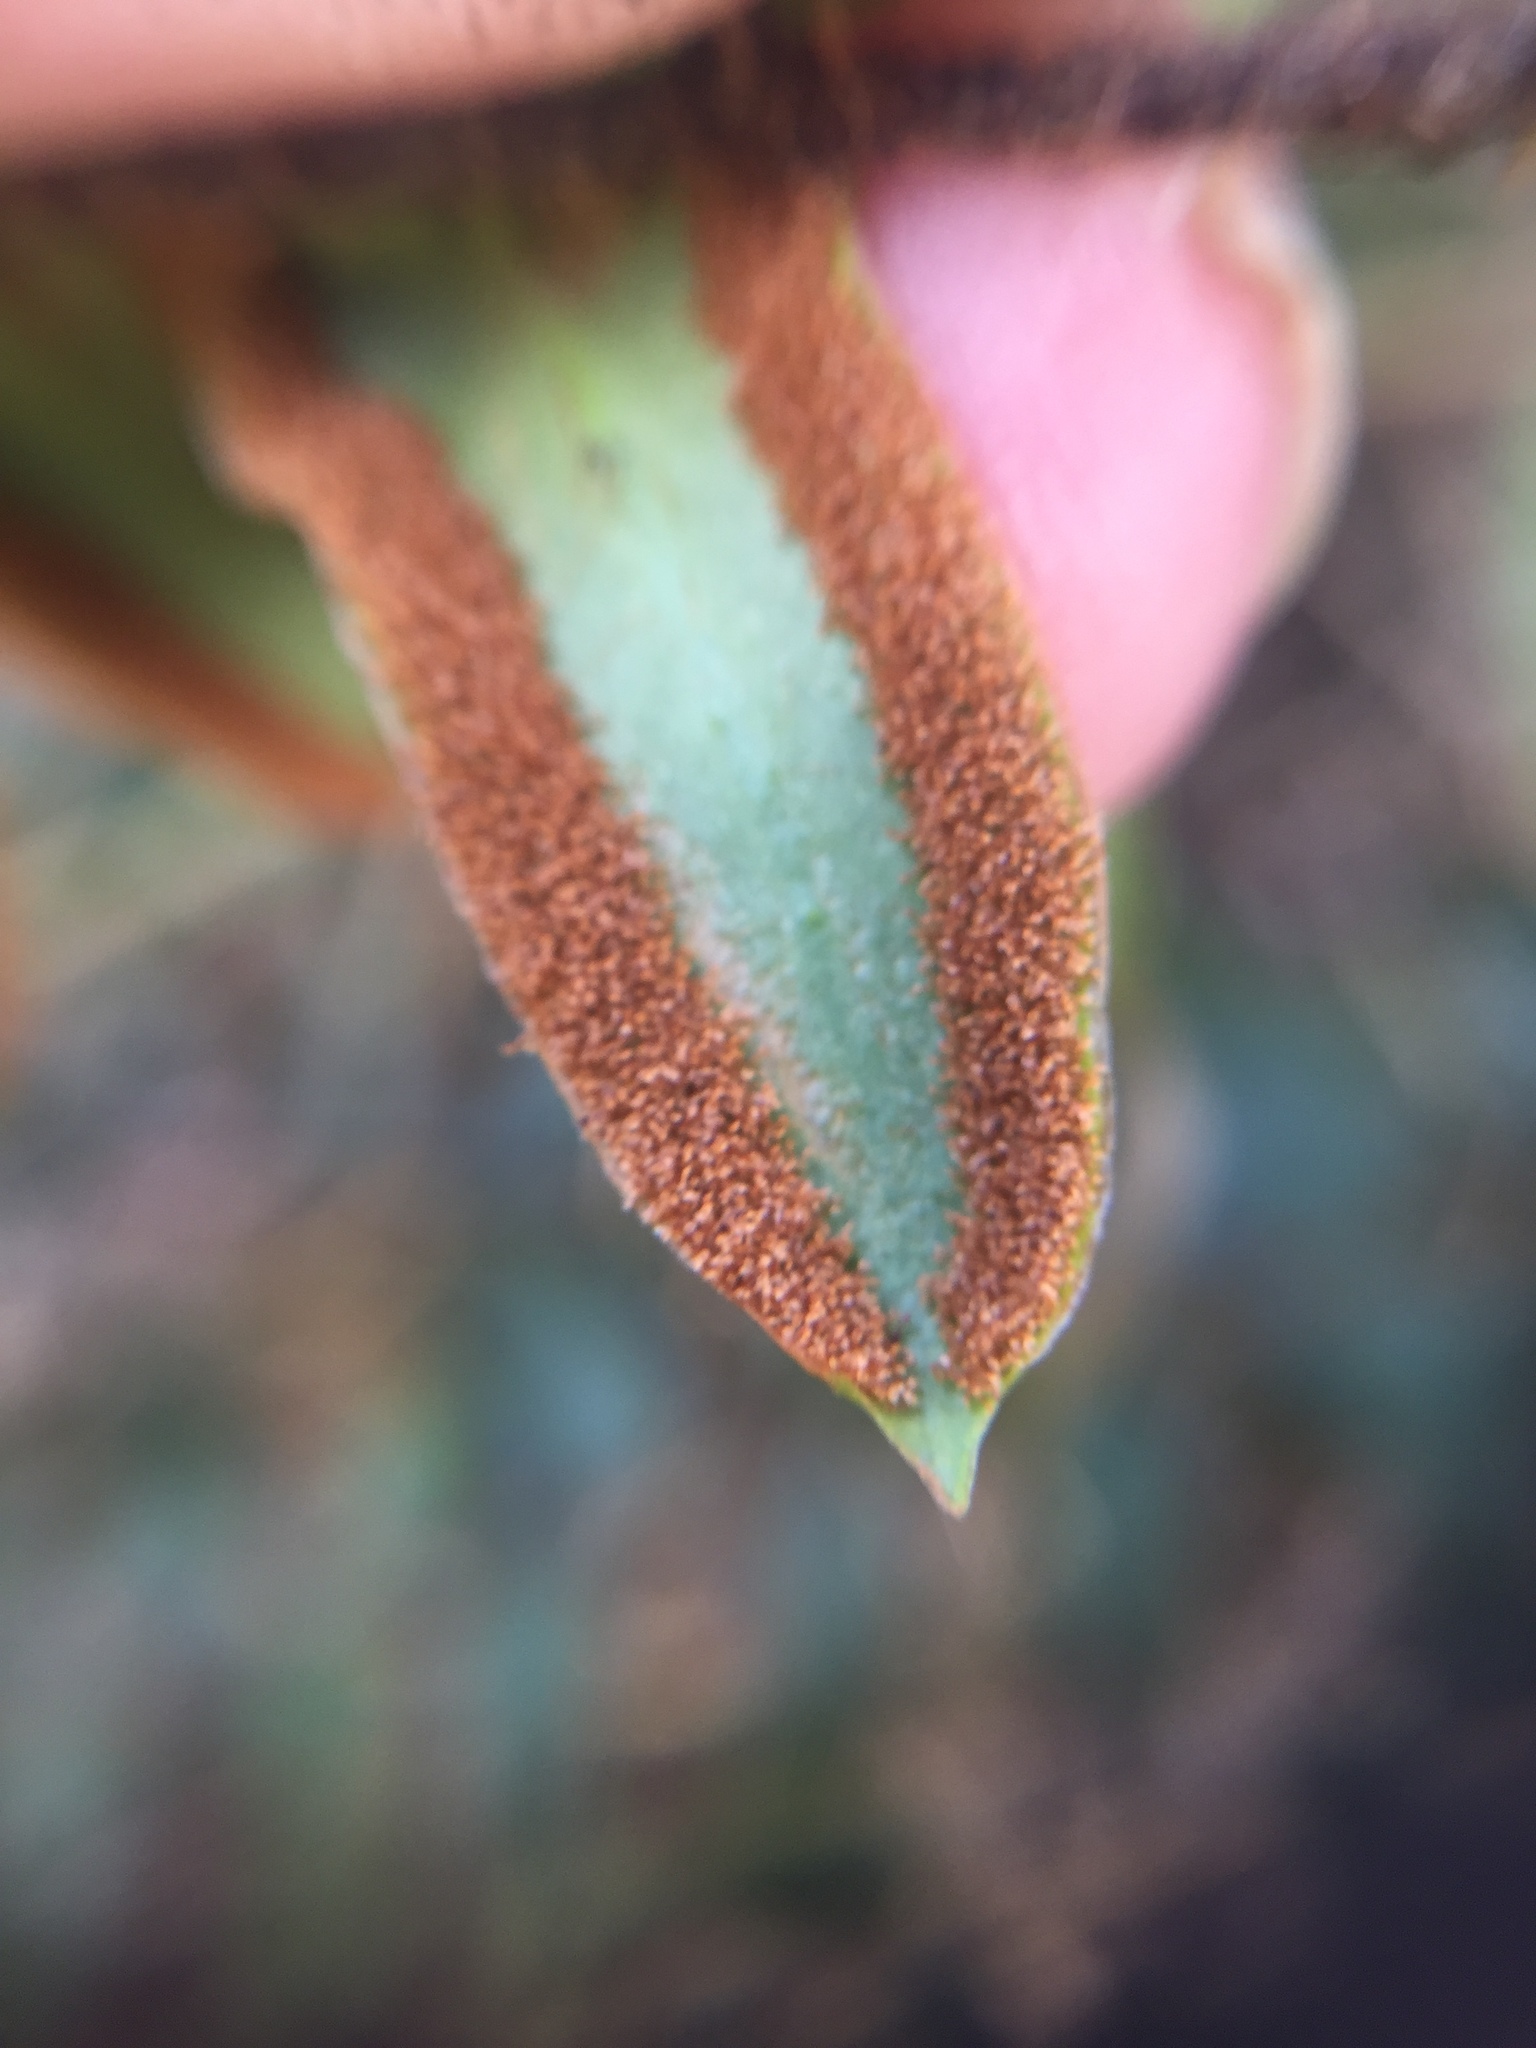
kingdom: Plantae
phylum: Tracheophyta
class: Polypodiopsida
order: Polypodiales
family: Pteridaceae
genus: Pellaea
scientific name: Pellaea rotundifolia
